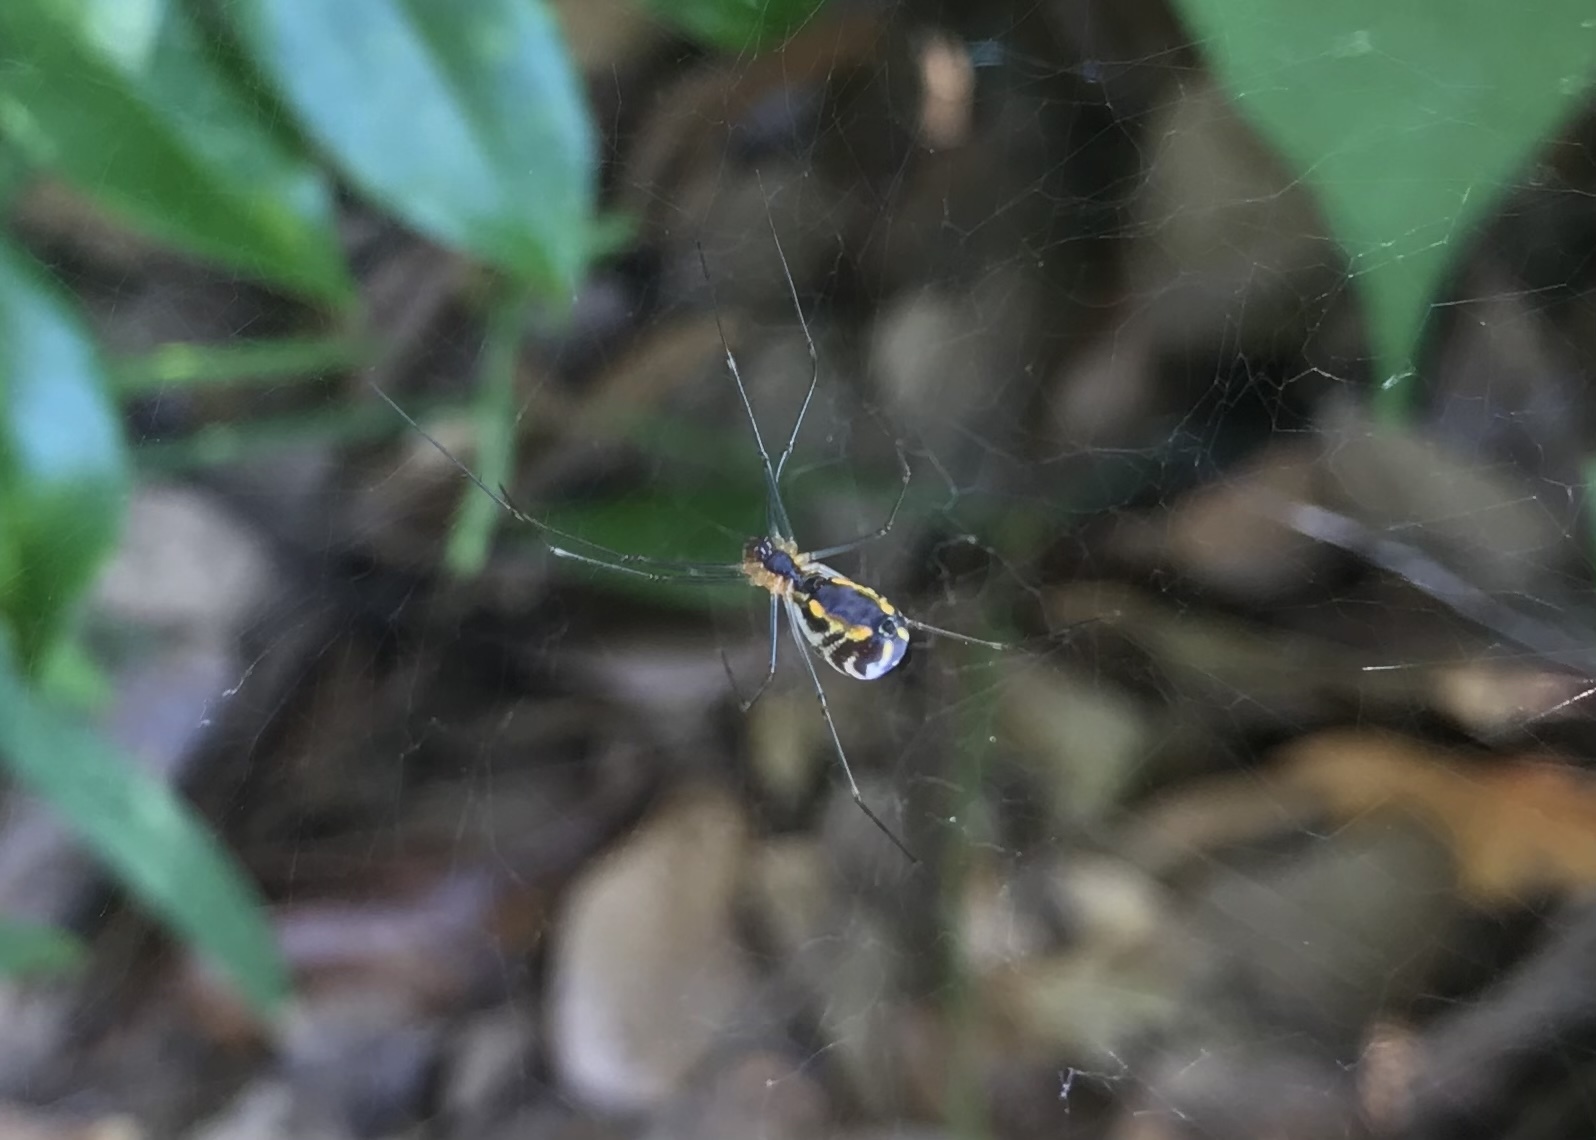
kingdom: Animalia
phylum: Arthropoda
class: Arachnida
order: Araneae
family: Linyphiidae
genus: Neriene
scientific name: Neriene radiata
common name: Filmy dome spider
